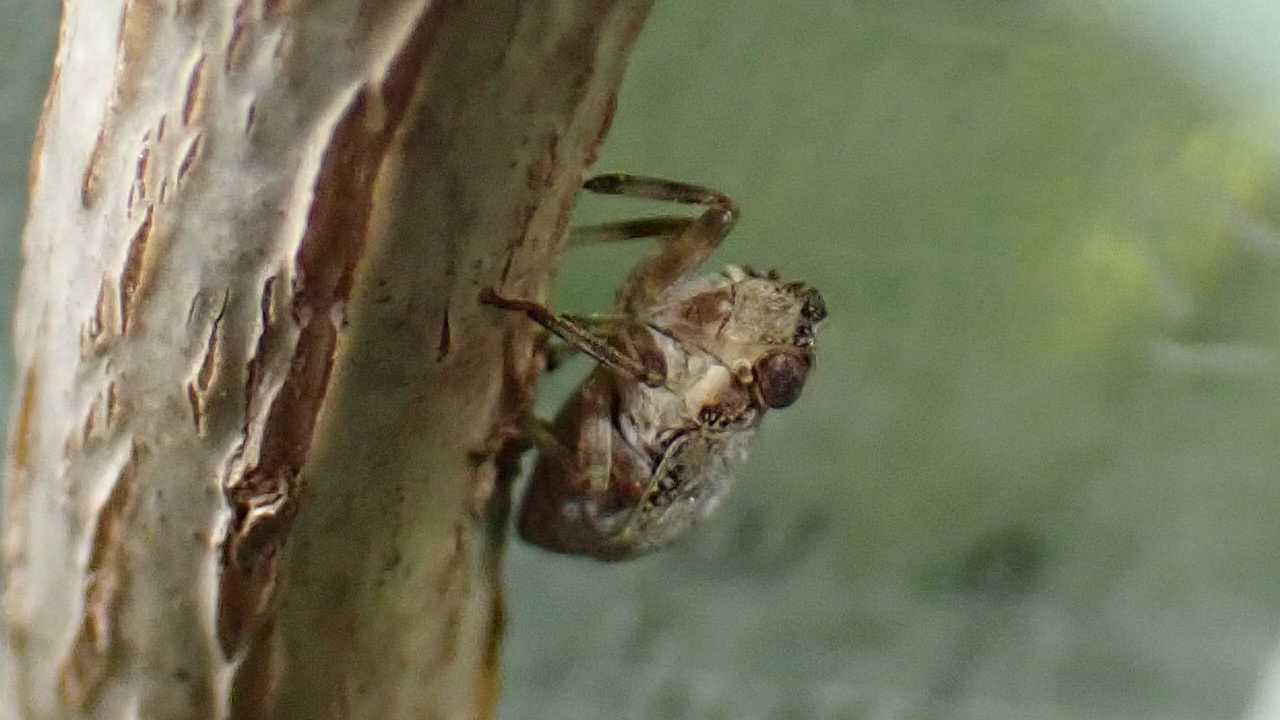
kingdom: Animalia
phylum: Arthropoda
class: Insecta
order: Hemiptera
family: Issidae
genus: Issus
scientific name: Issus coleoptratus
